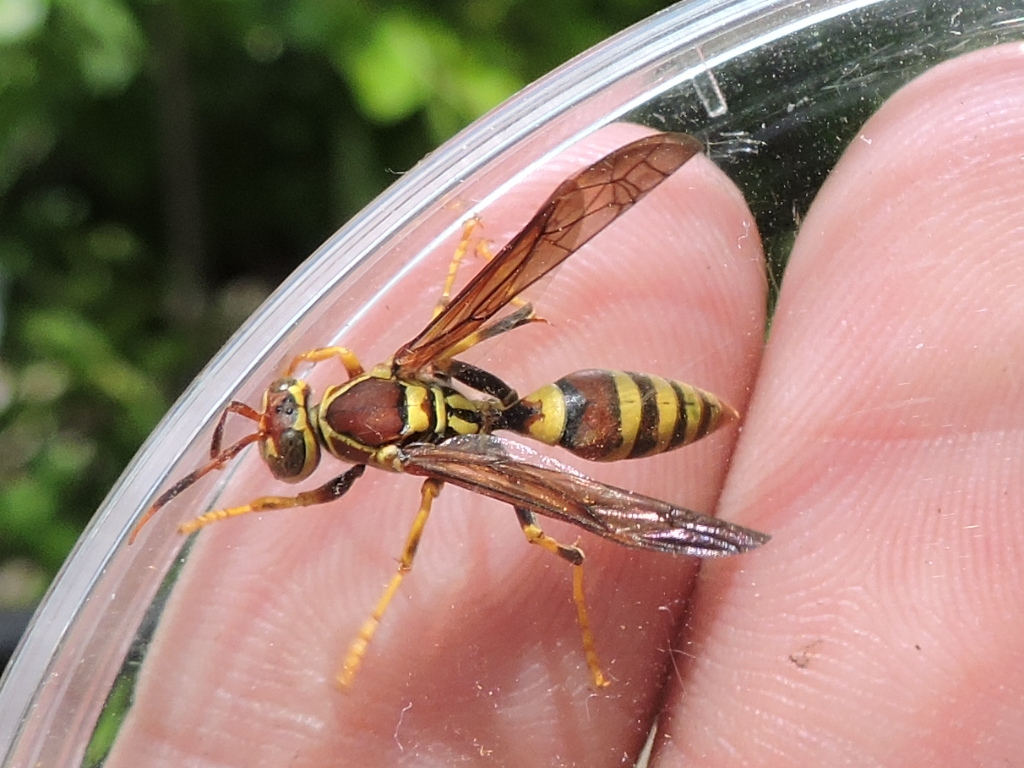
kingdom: Animalia
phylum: Arthropoda
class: Insecta
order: Hymenoptera
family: Eumenidae
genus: Polistes
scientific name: Polistes exclamans
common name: Paper wasp
